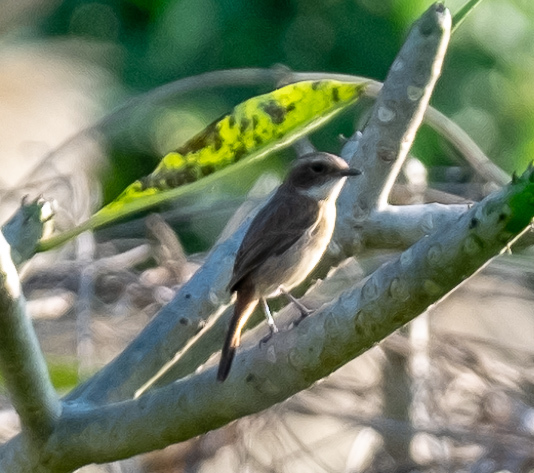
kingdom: Animalia
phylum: Chordata
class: Aves
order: Passeriformes
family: Muscicapidae
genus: Saxicola
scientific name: Saxicola ferreus
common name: Grey bush chat
